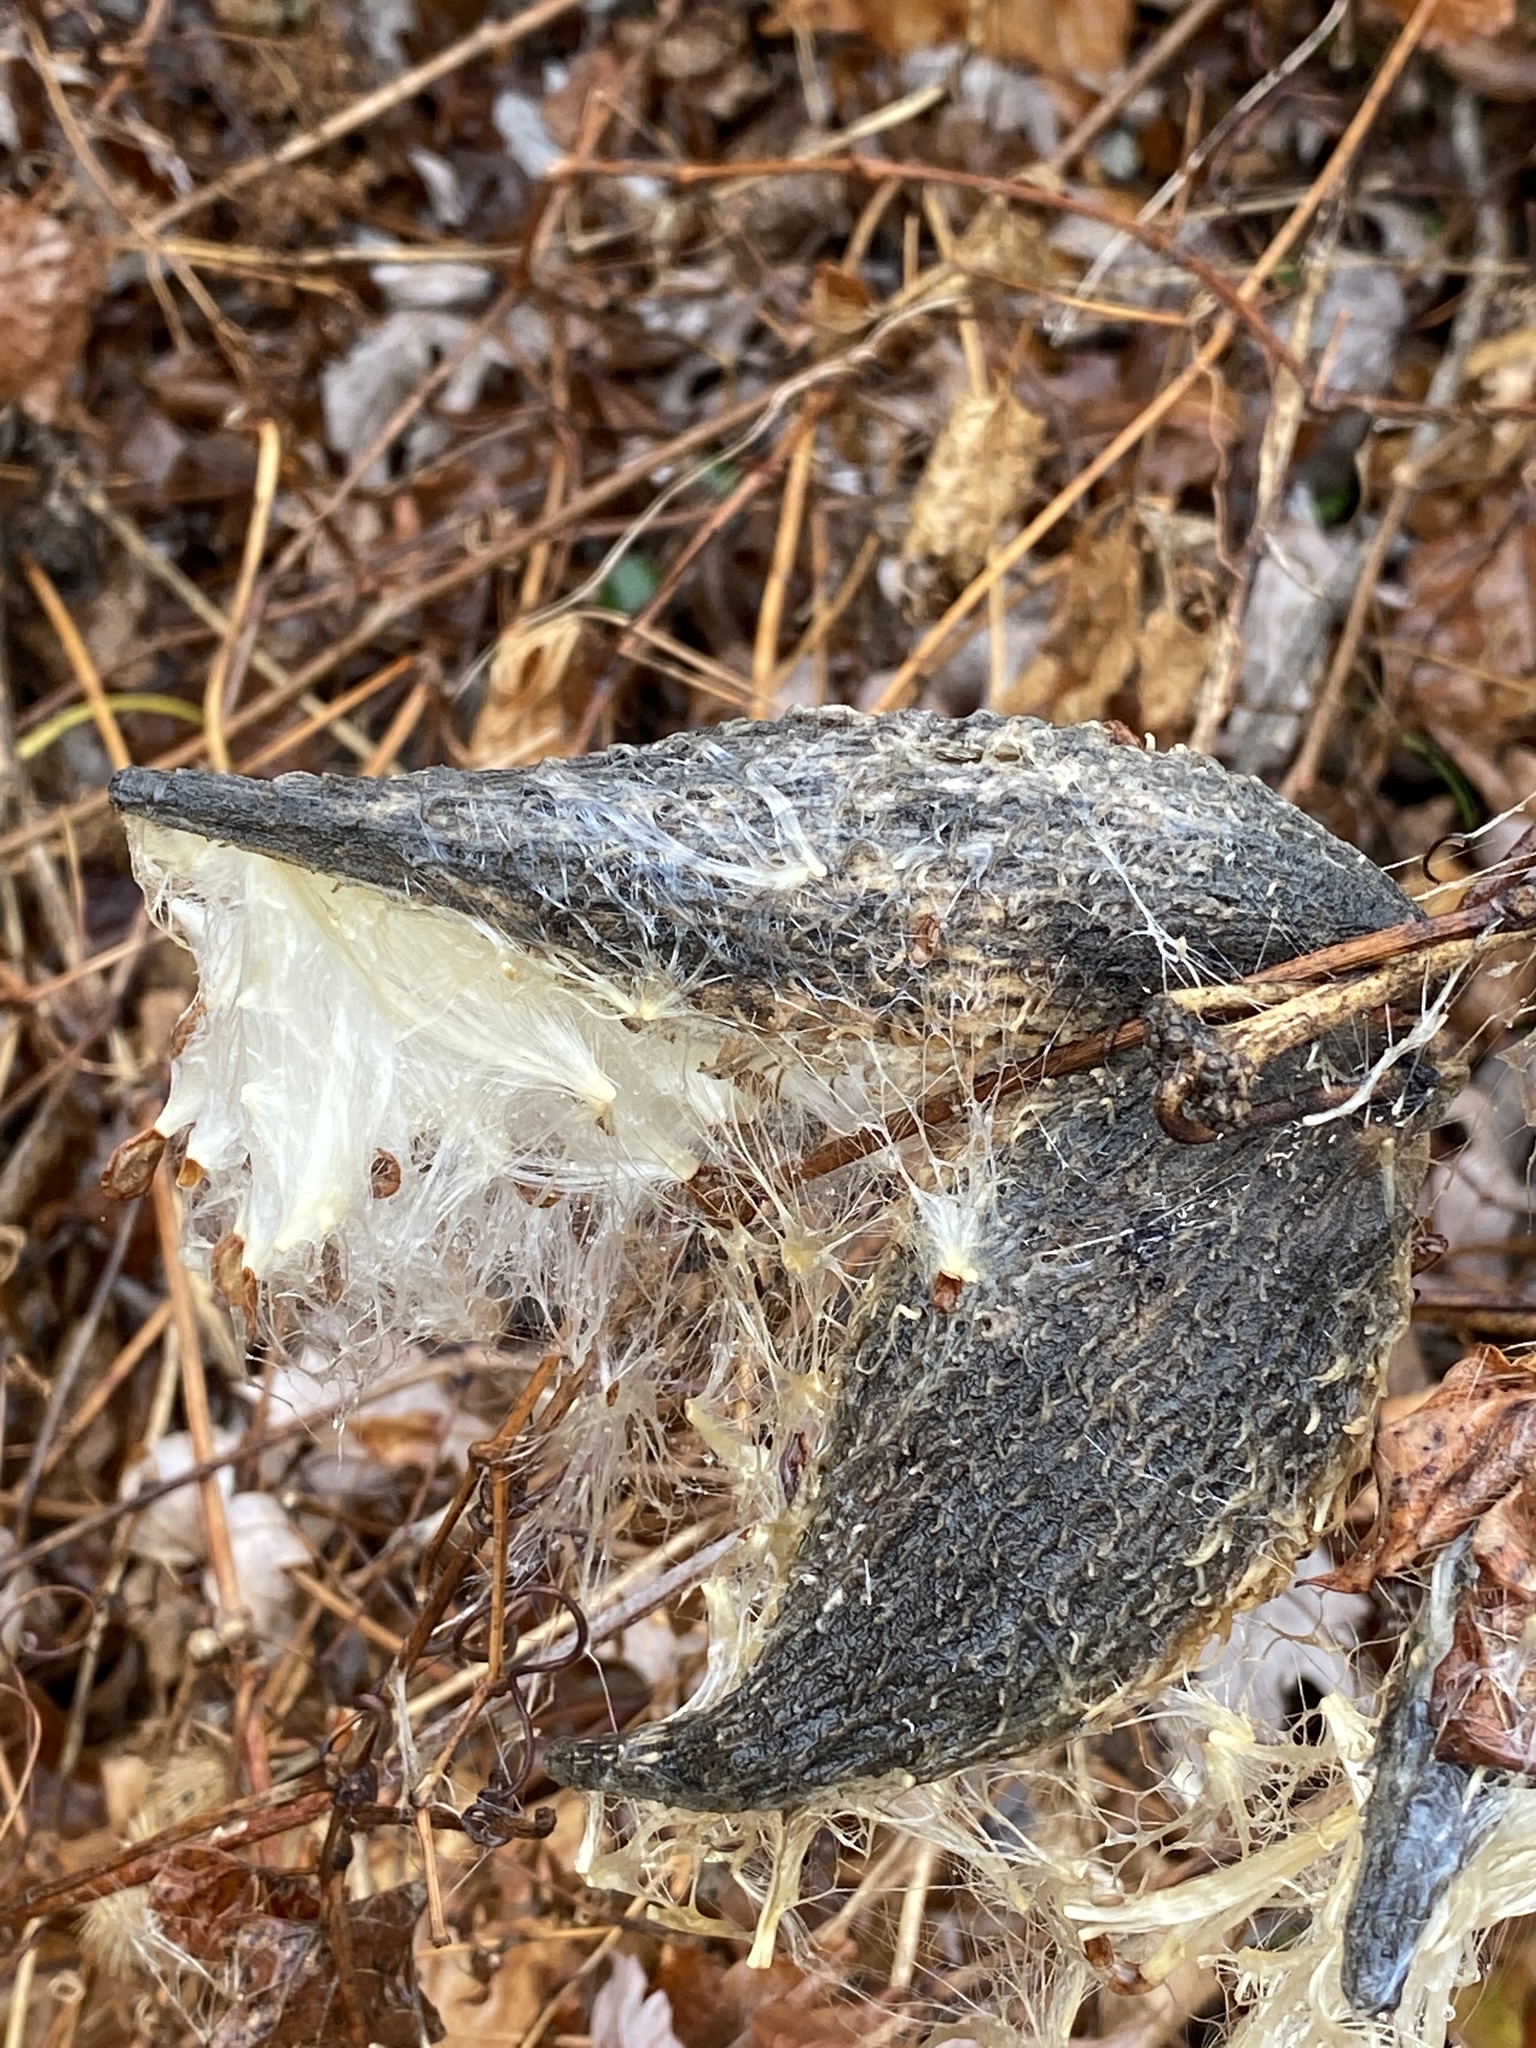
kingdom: Plantae
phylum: Tracheophyta
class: Magnoliopsida
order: Gentianales
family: Apocynaceae
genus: Asclepias
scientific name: Asclepias syriaca
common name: Common milkweed
